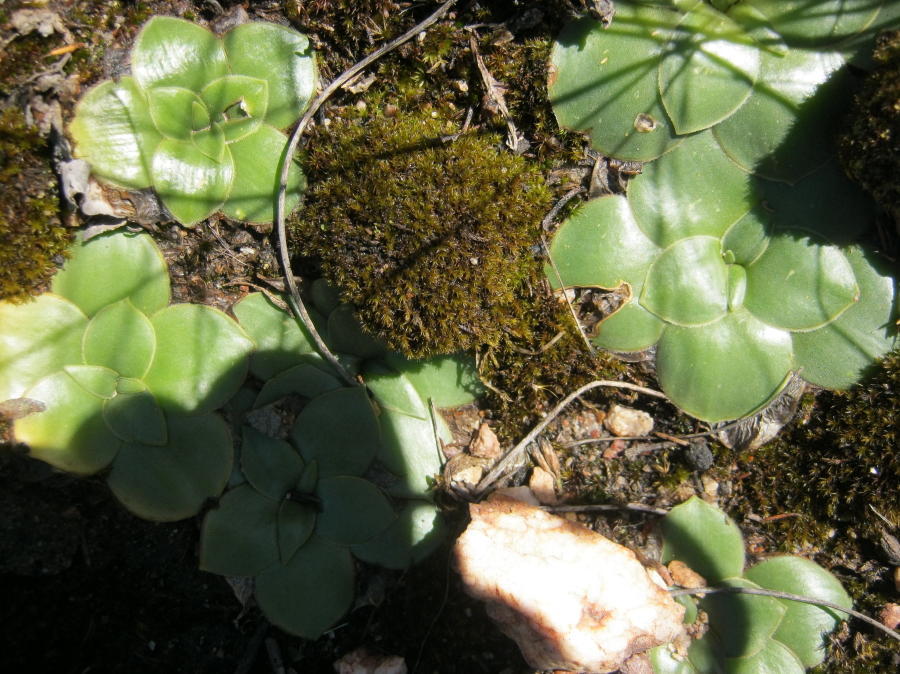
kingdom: Plantae
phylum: Tracheophyta
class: Liliopsida
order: Asparagales
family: Asparagaceae
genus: Drimia
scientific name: Drimia ciliata
